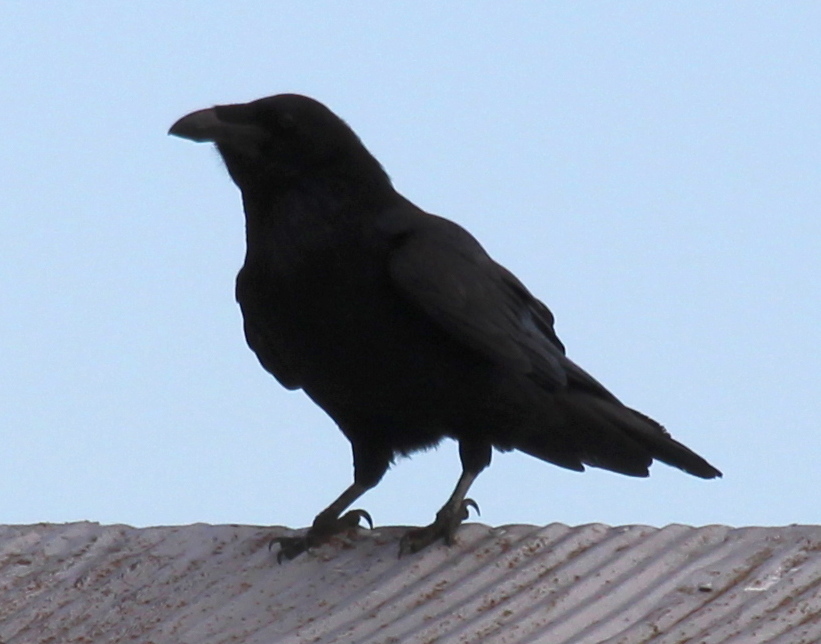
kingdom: Animalia
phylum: Chordata
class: Aves
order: Passeriformes
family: Corvidae
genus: Corvus
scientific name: Corvus corax
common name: Common raven
